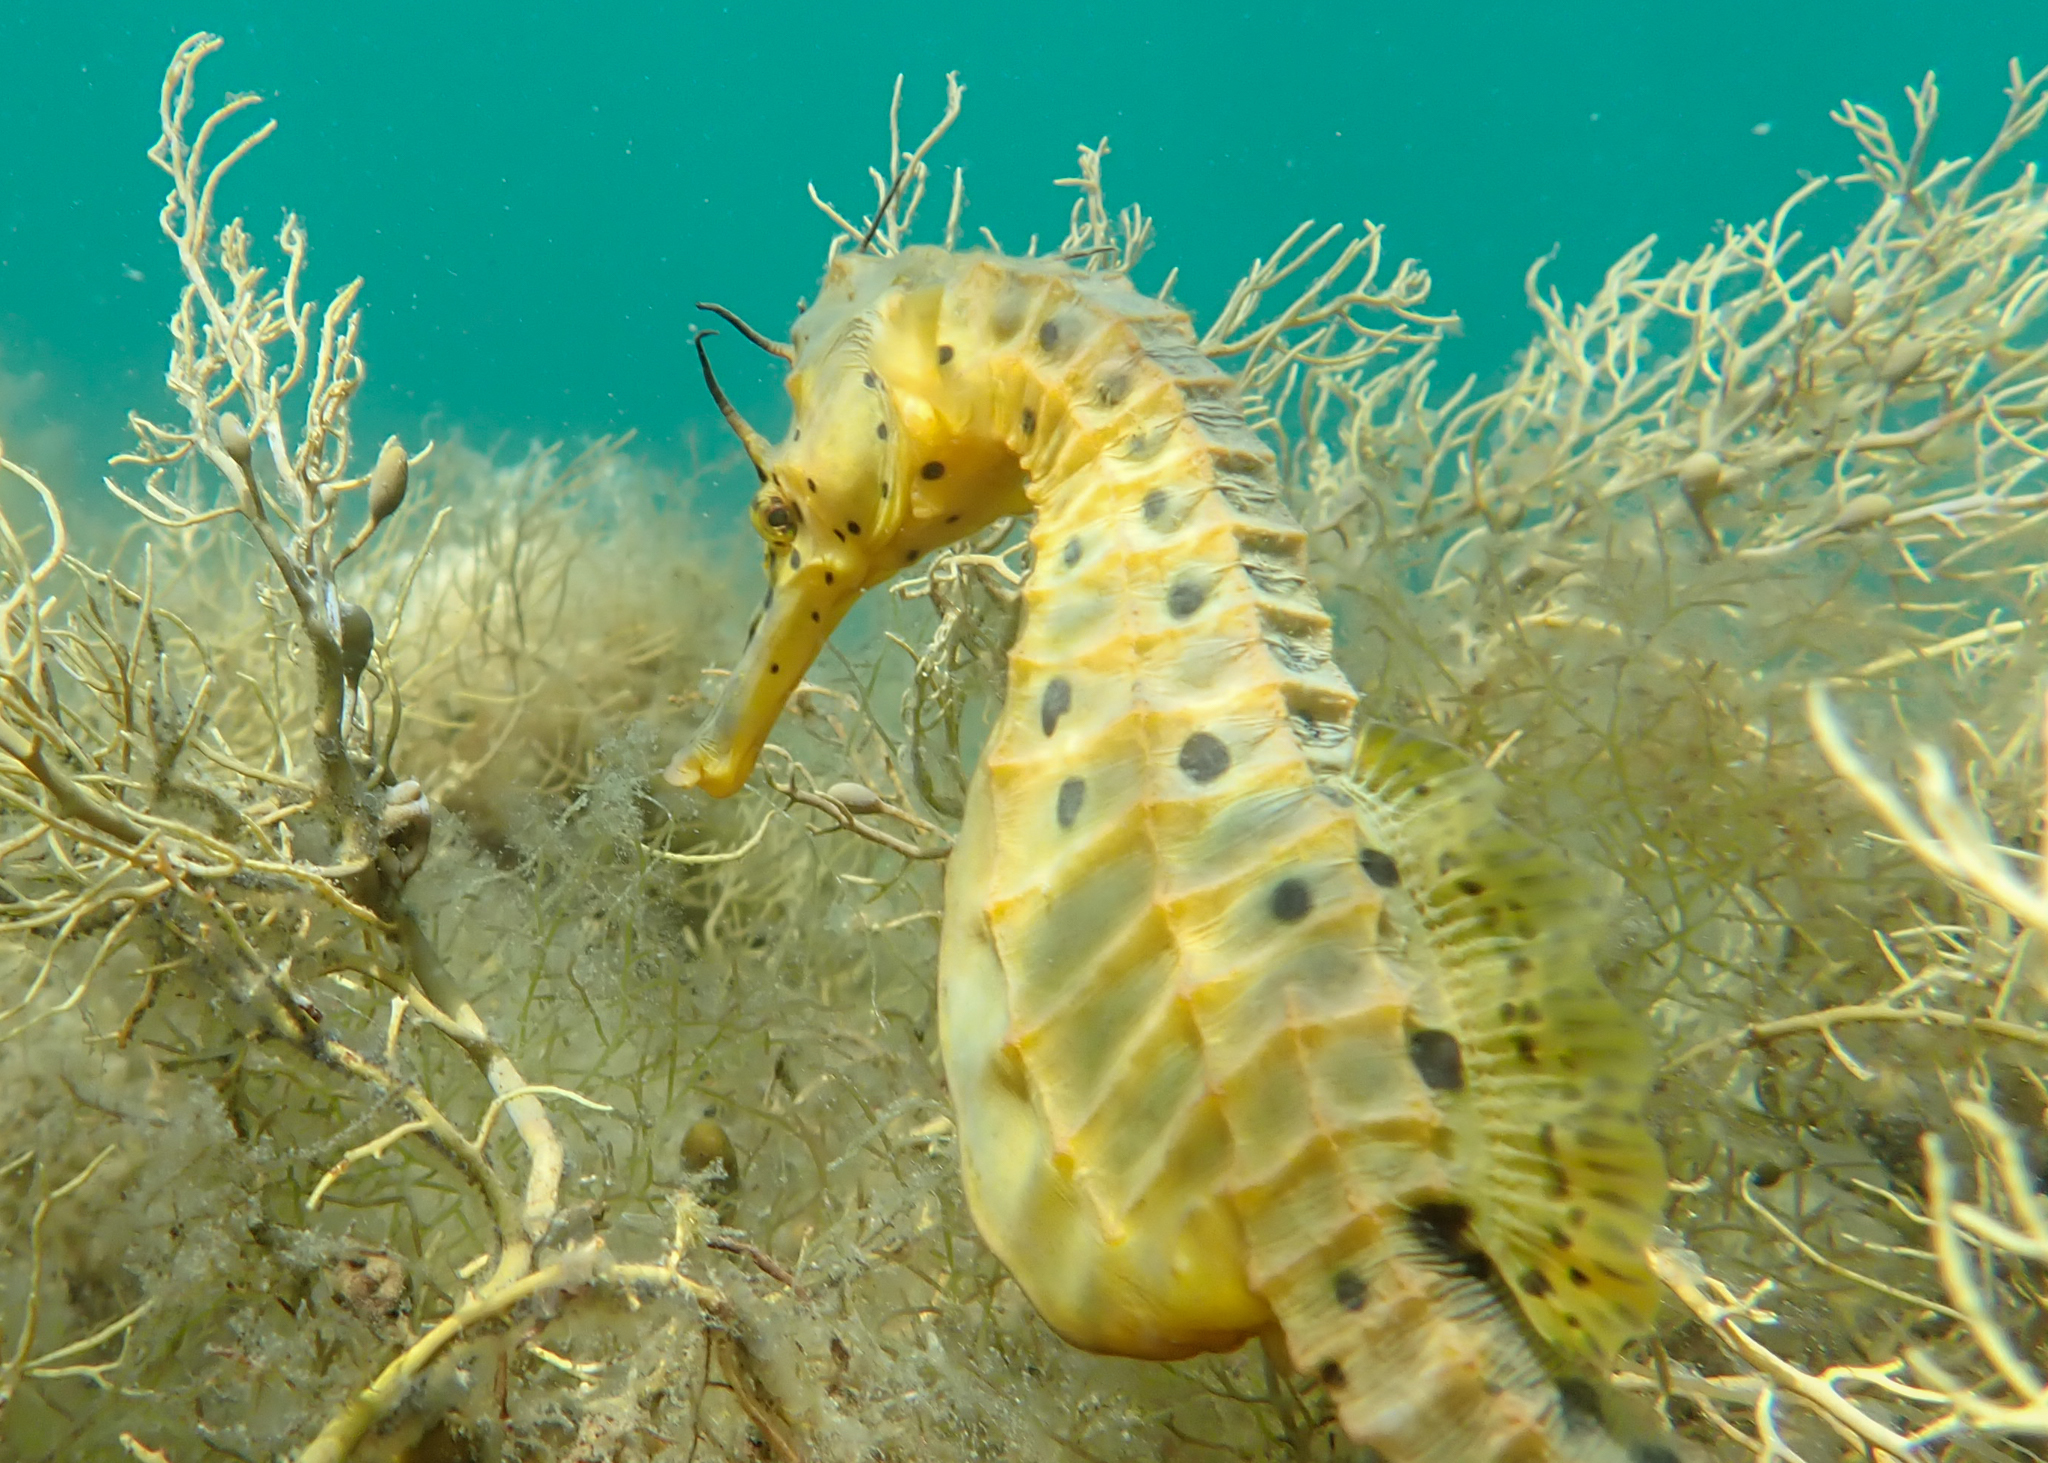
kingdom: Animalia
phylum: Chordata
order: Syngnathiformes
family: Syngnathidae
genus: Hippocampus
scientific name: Hippocampus abdominalis
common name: Big-belly seahorse
